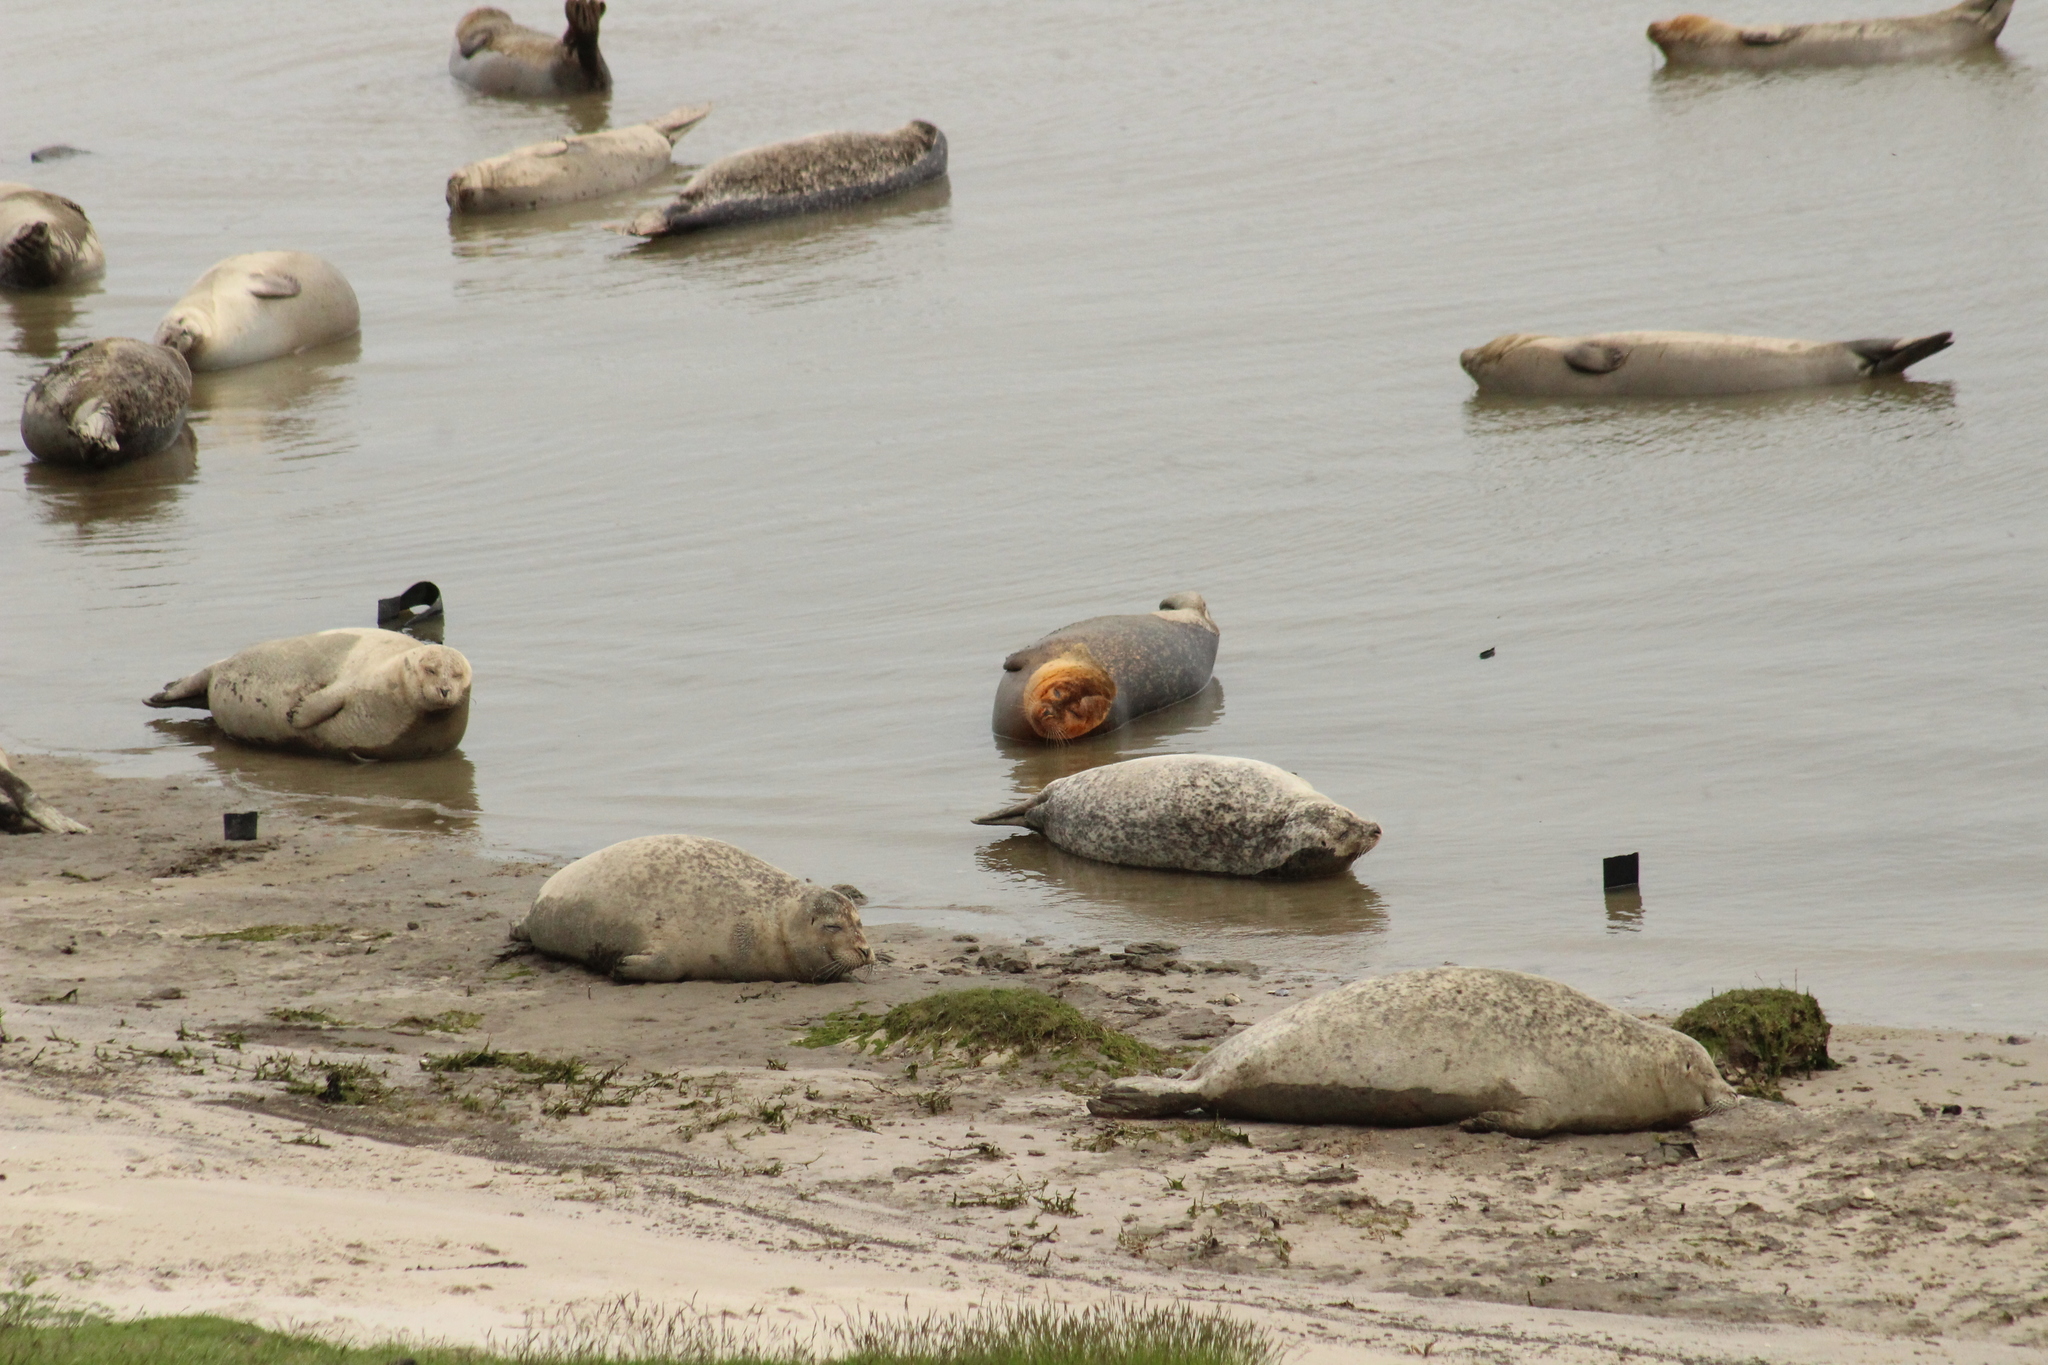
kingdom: Animalia
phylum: Chordata
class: Mammalia
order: Carnivora
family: Phocidae
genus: Phoca
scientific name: Phoca vitulina
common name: Harbor seal
